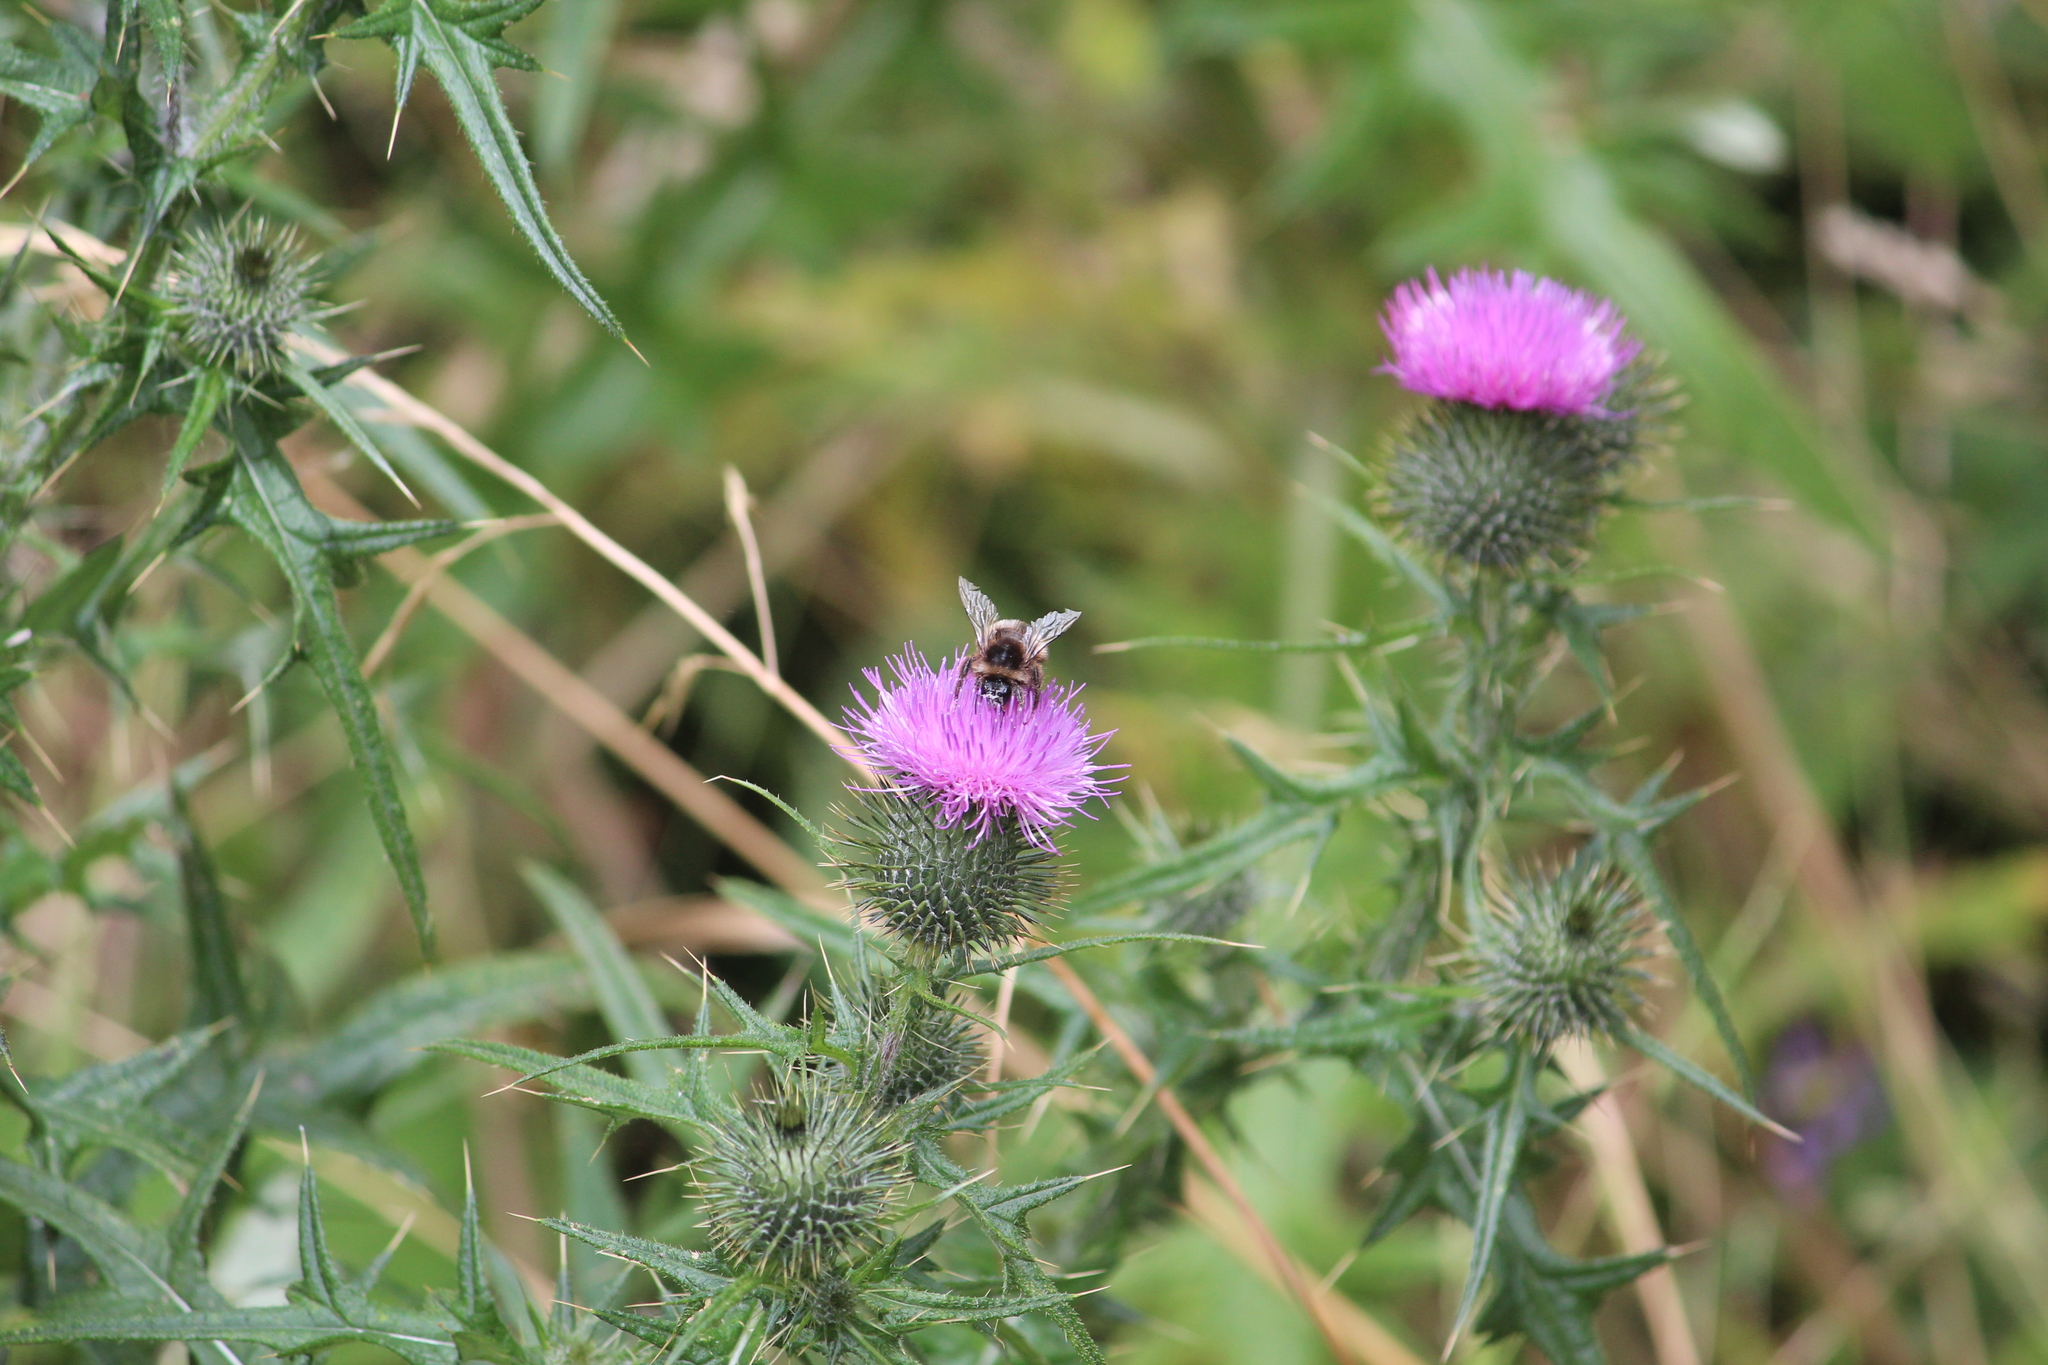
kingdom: Animalia
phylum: Arthropoda
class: Insecta
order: Hymenoptera
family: Apidae
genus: Bombus
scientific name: Bombus terrestris
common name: Buff-tailed bumblebee
